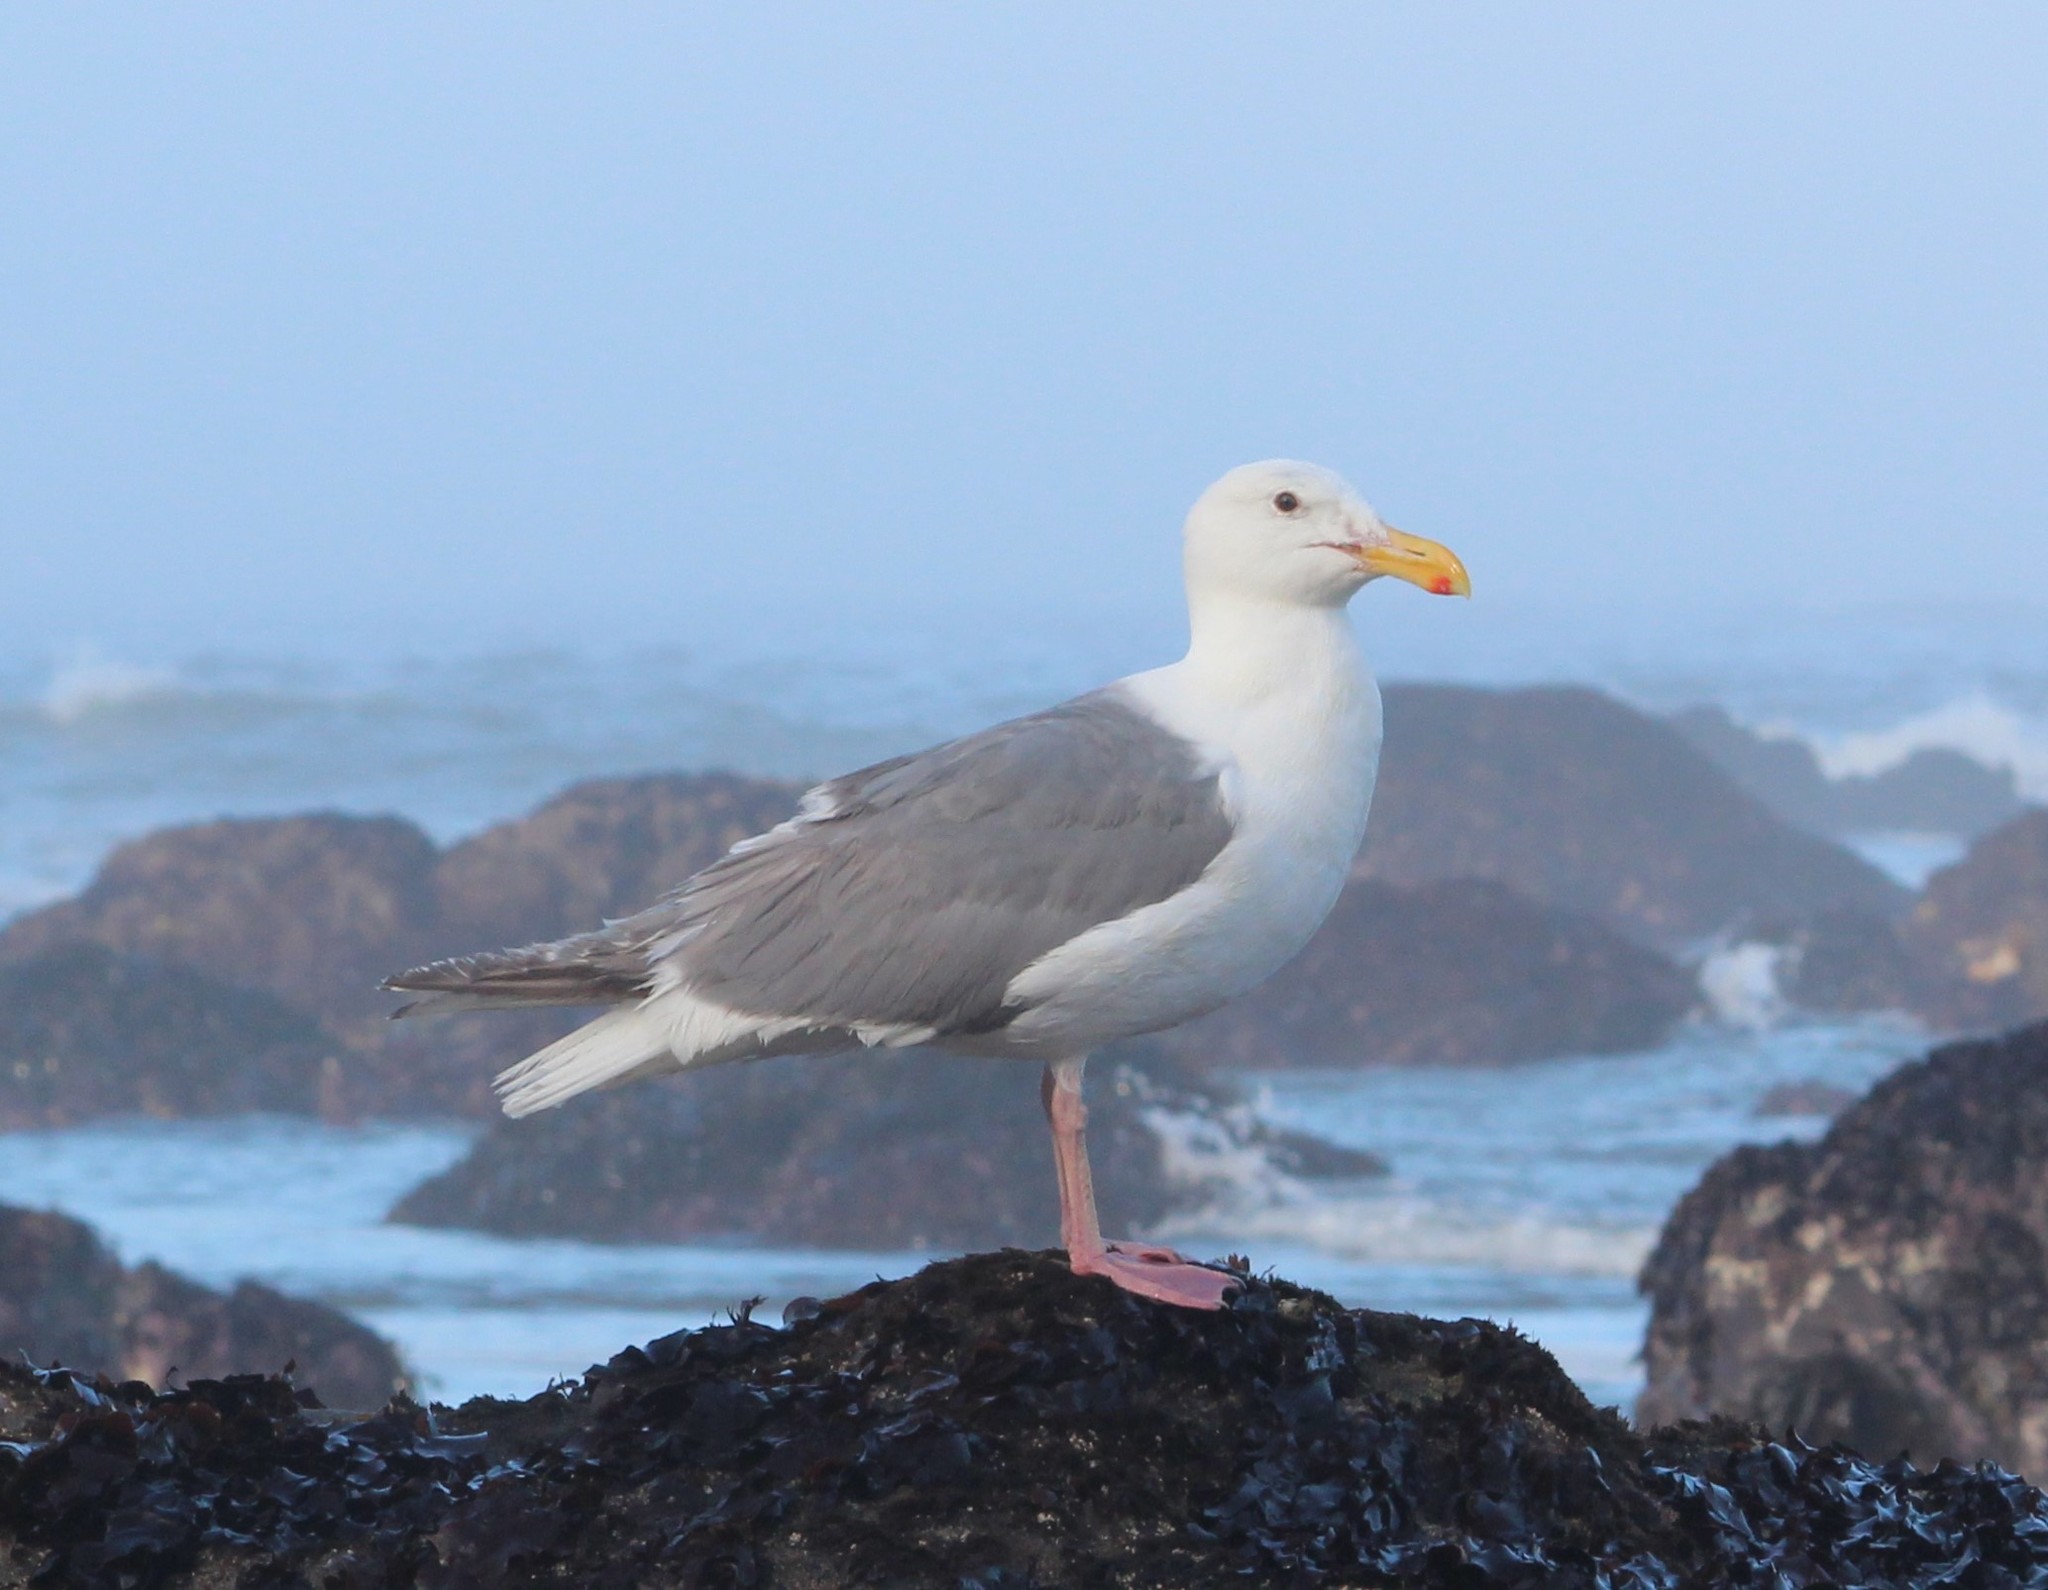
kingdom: Animalia
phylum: Chordata
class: Aves
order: Charadriiformes
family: Laridae
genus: Larus
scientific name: Larus glaucescens
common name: Glaucous-winged gull
